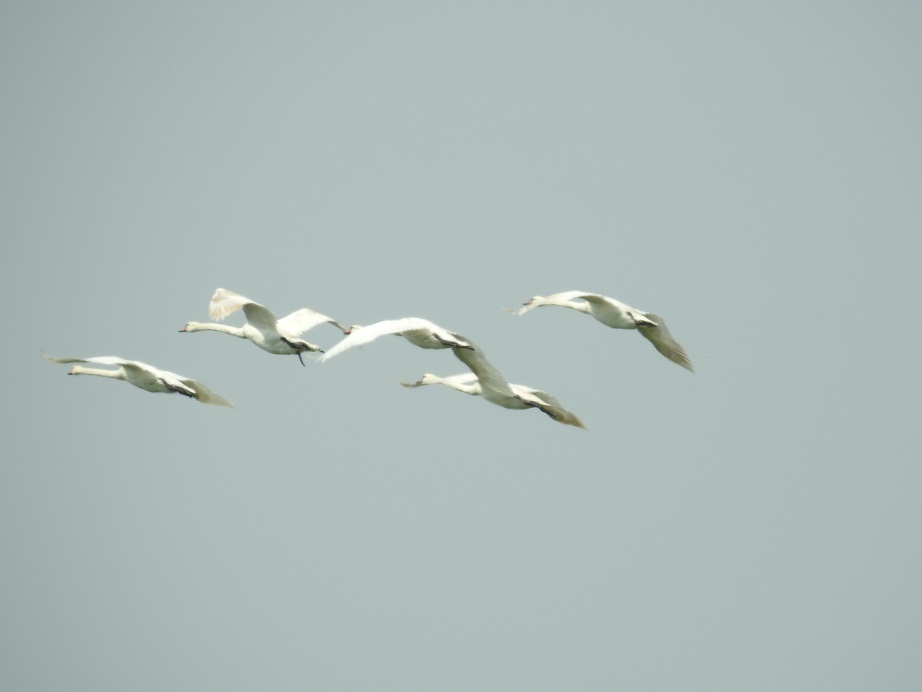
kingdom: Animalia
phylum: Chordata
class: Aves
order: Anseriformes
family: Anatidae
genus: Cygnus
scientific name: Cygnus olor
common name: Mute swan
